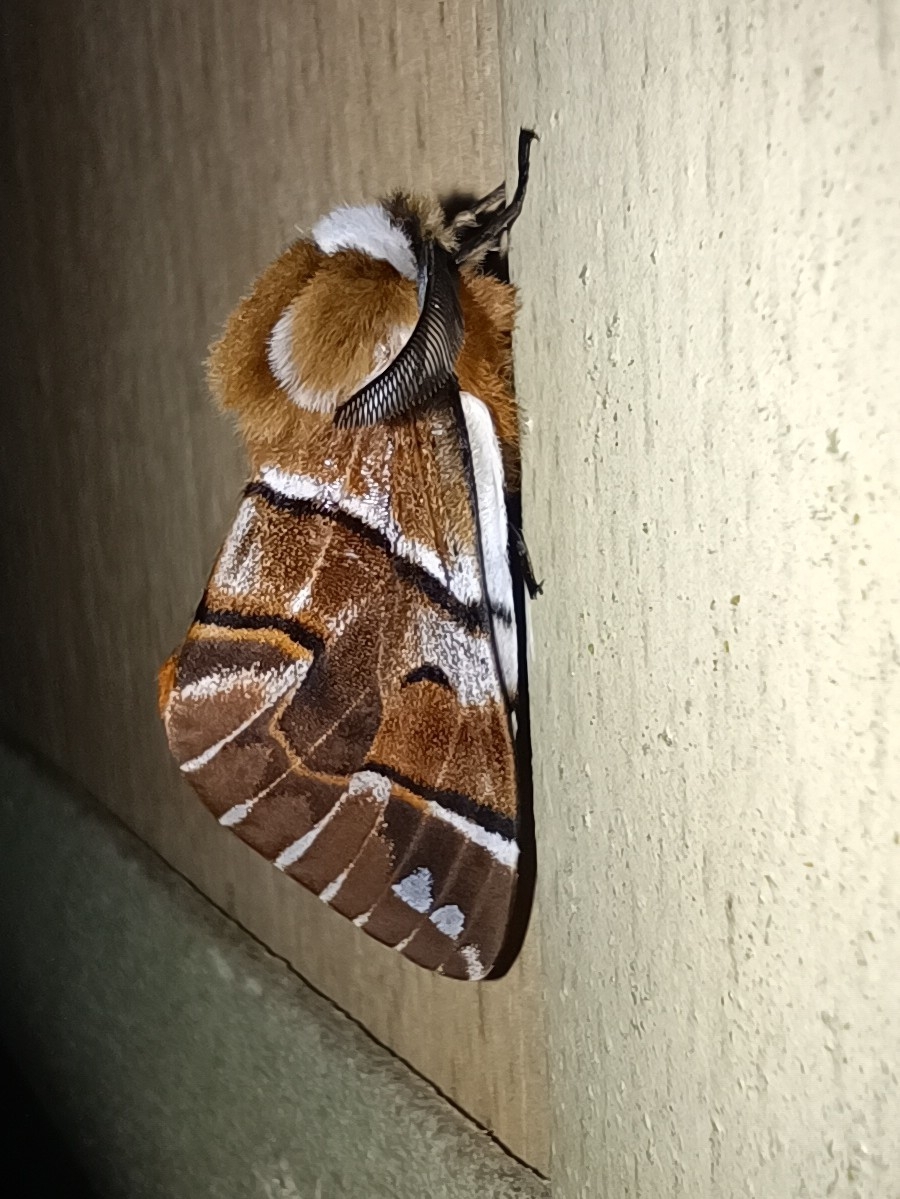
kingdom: Animalia
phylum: Arthropoda
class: Insecta
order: Lepidoptera
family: Endromidae
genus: Endromis
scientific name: Endromis versicolora
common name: Kentish glory
